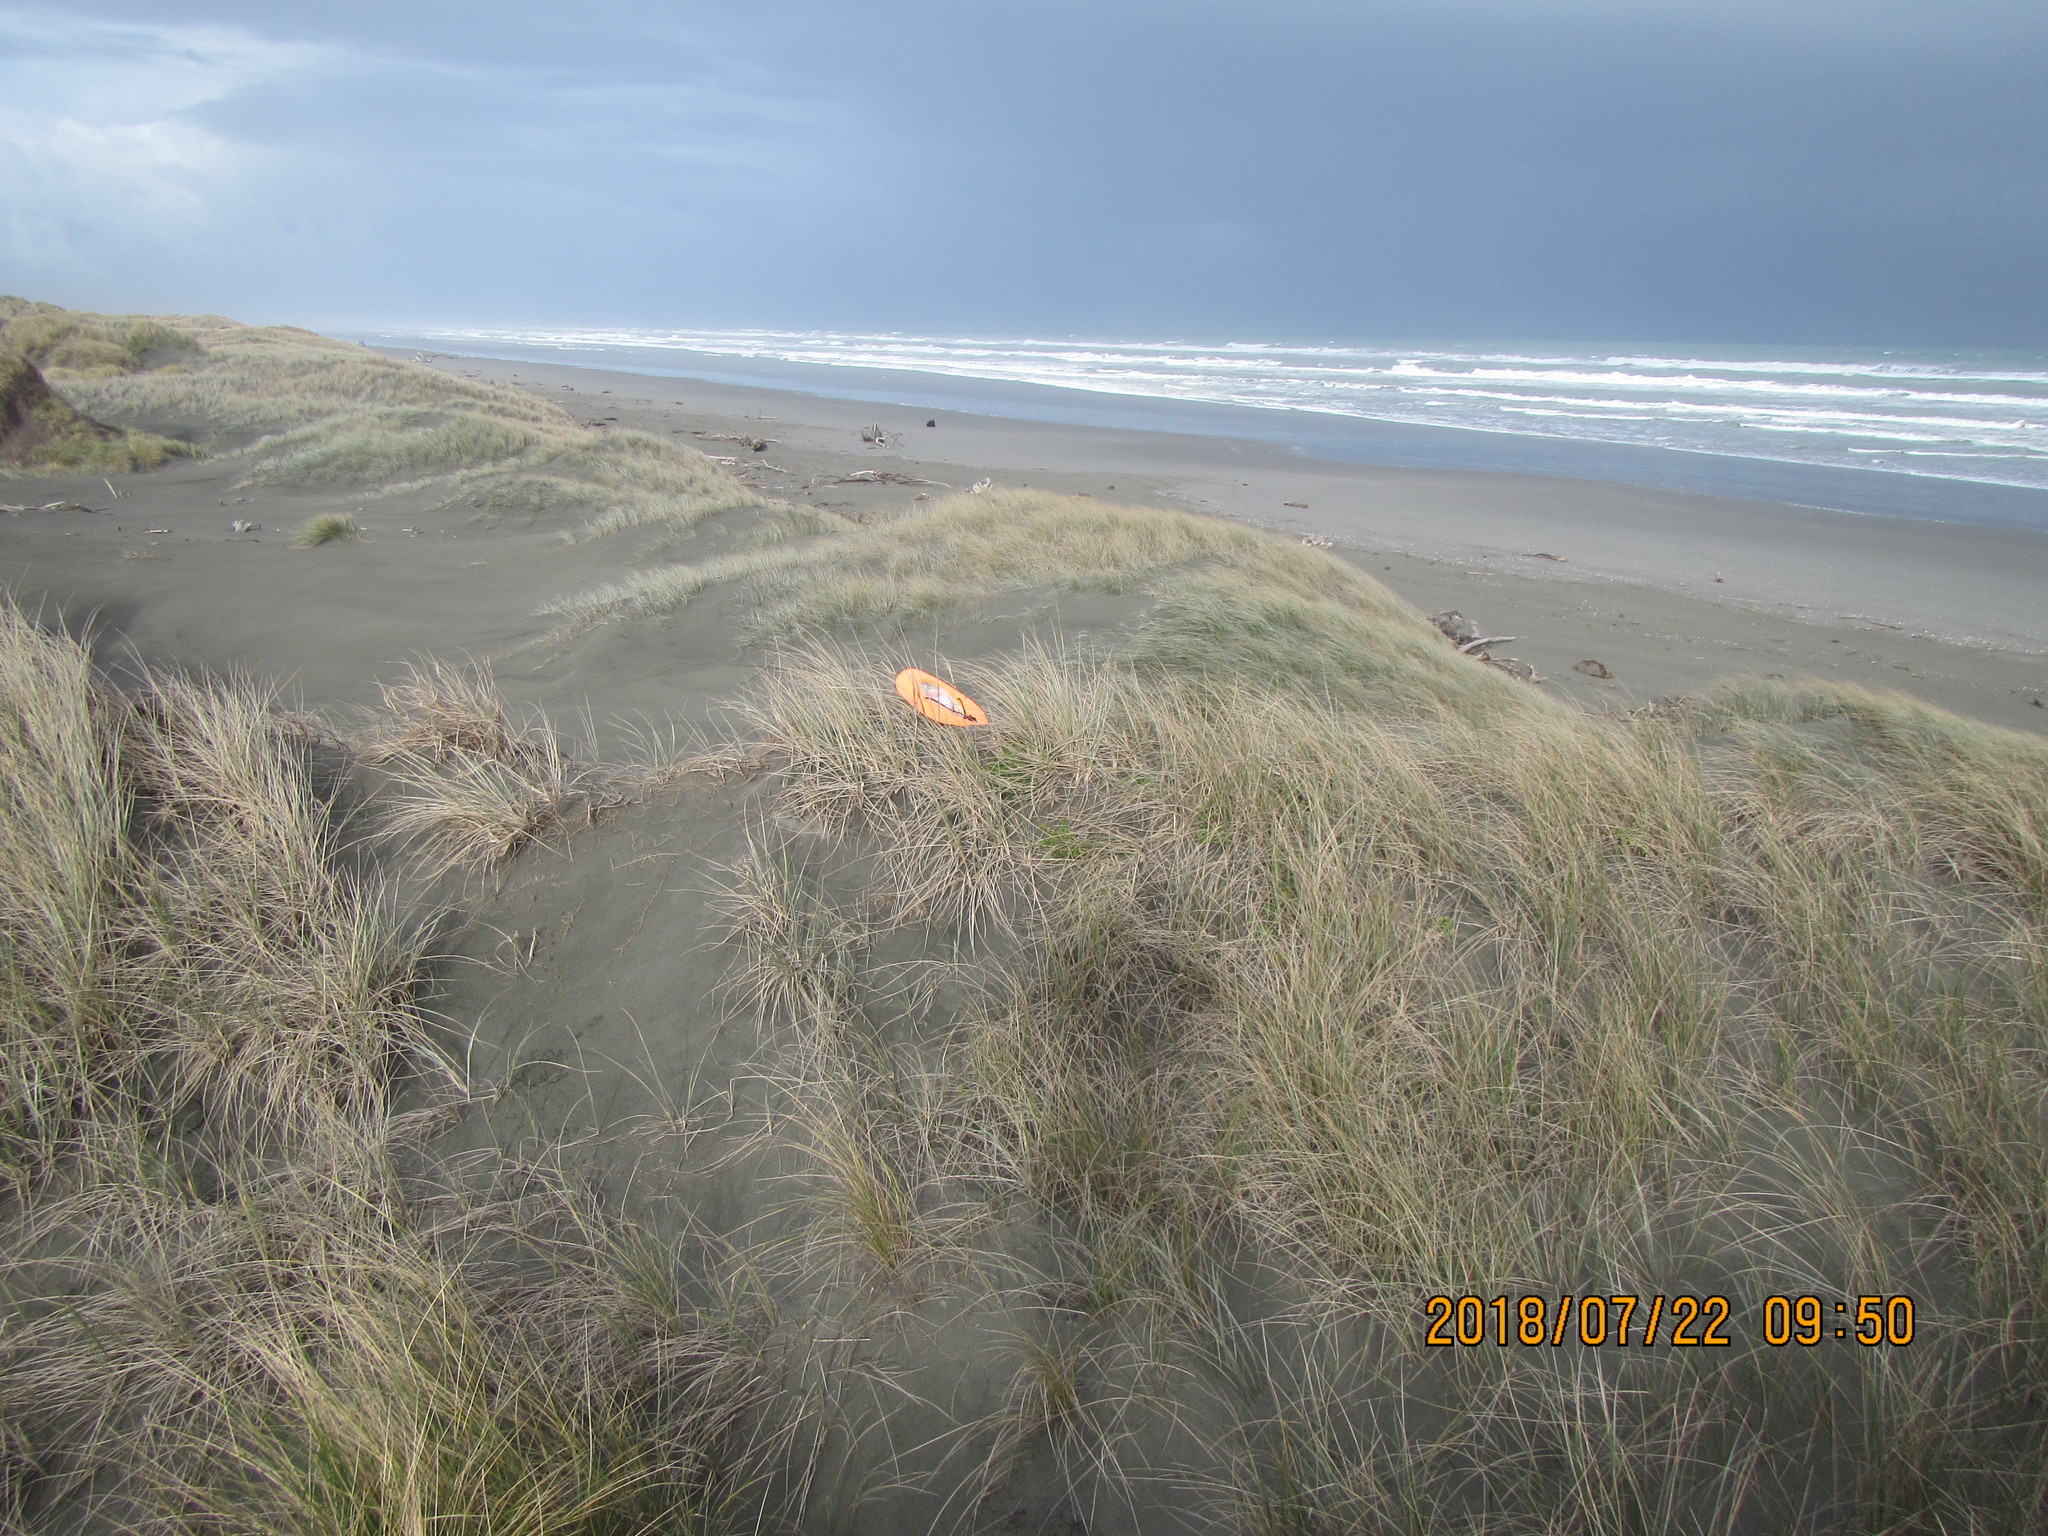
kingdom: Animalia
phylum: Arthropoda
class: Arachnida
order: Araneae
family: Mimetidae
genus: Australomimetus
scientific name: Australomimetus hartleyensis
